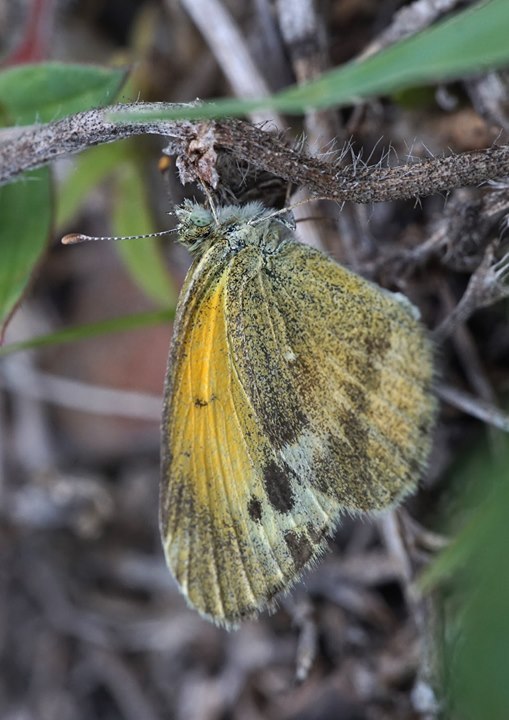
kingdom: Animalia
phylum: Arthropoda
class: Insecta
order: Lepidoptera
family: Pieridae
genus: Nathalis
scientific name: Nathalis iole
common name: Dainty sulphur
